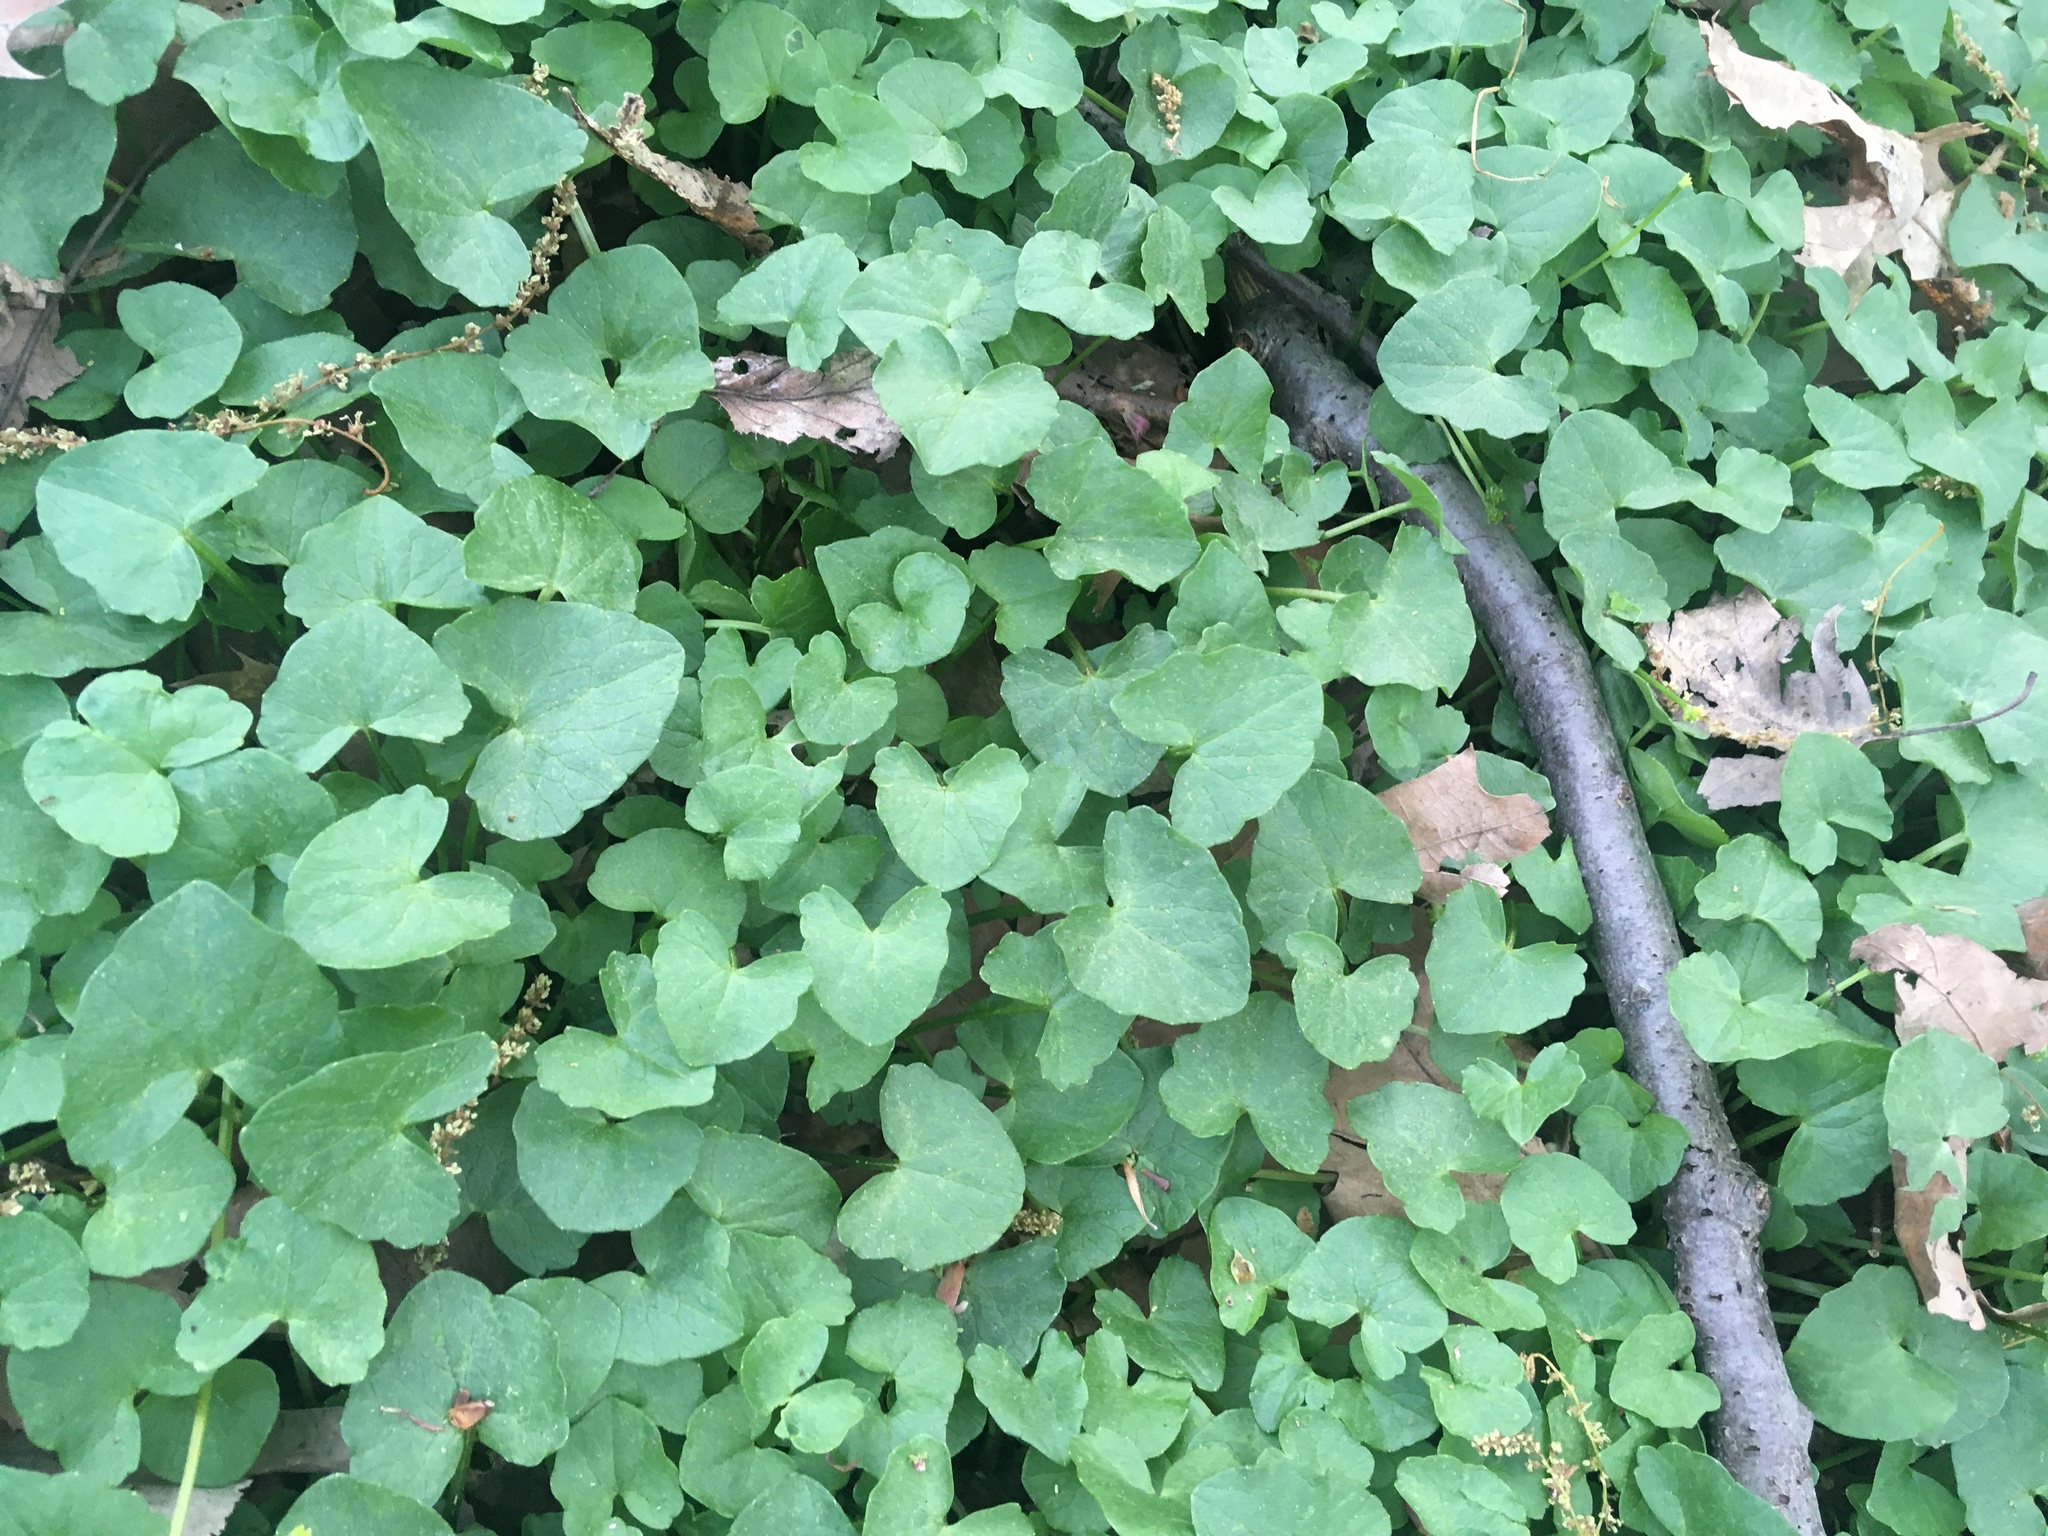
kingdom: Plantae
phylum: Tracheophyta
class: Magnoliopsida
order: Ranunculales
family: Ranunculaceae
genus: Ficaria
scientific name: Ficaria verna
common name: Lesser celandine
